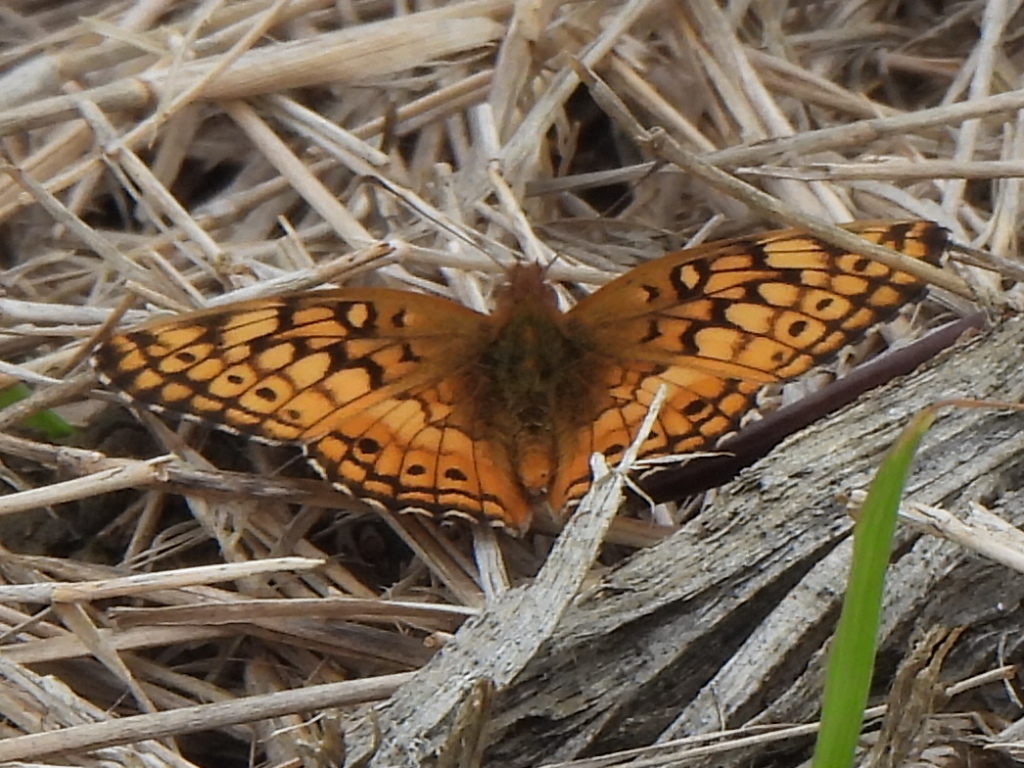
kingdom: Animalia
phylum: Arthropoda
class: Insecta
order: Lepidoptera
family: Nymphalidae
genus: Euptoieta
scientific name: Euptoieta claudia
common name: Variegated fritillary
